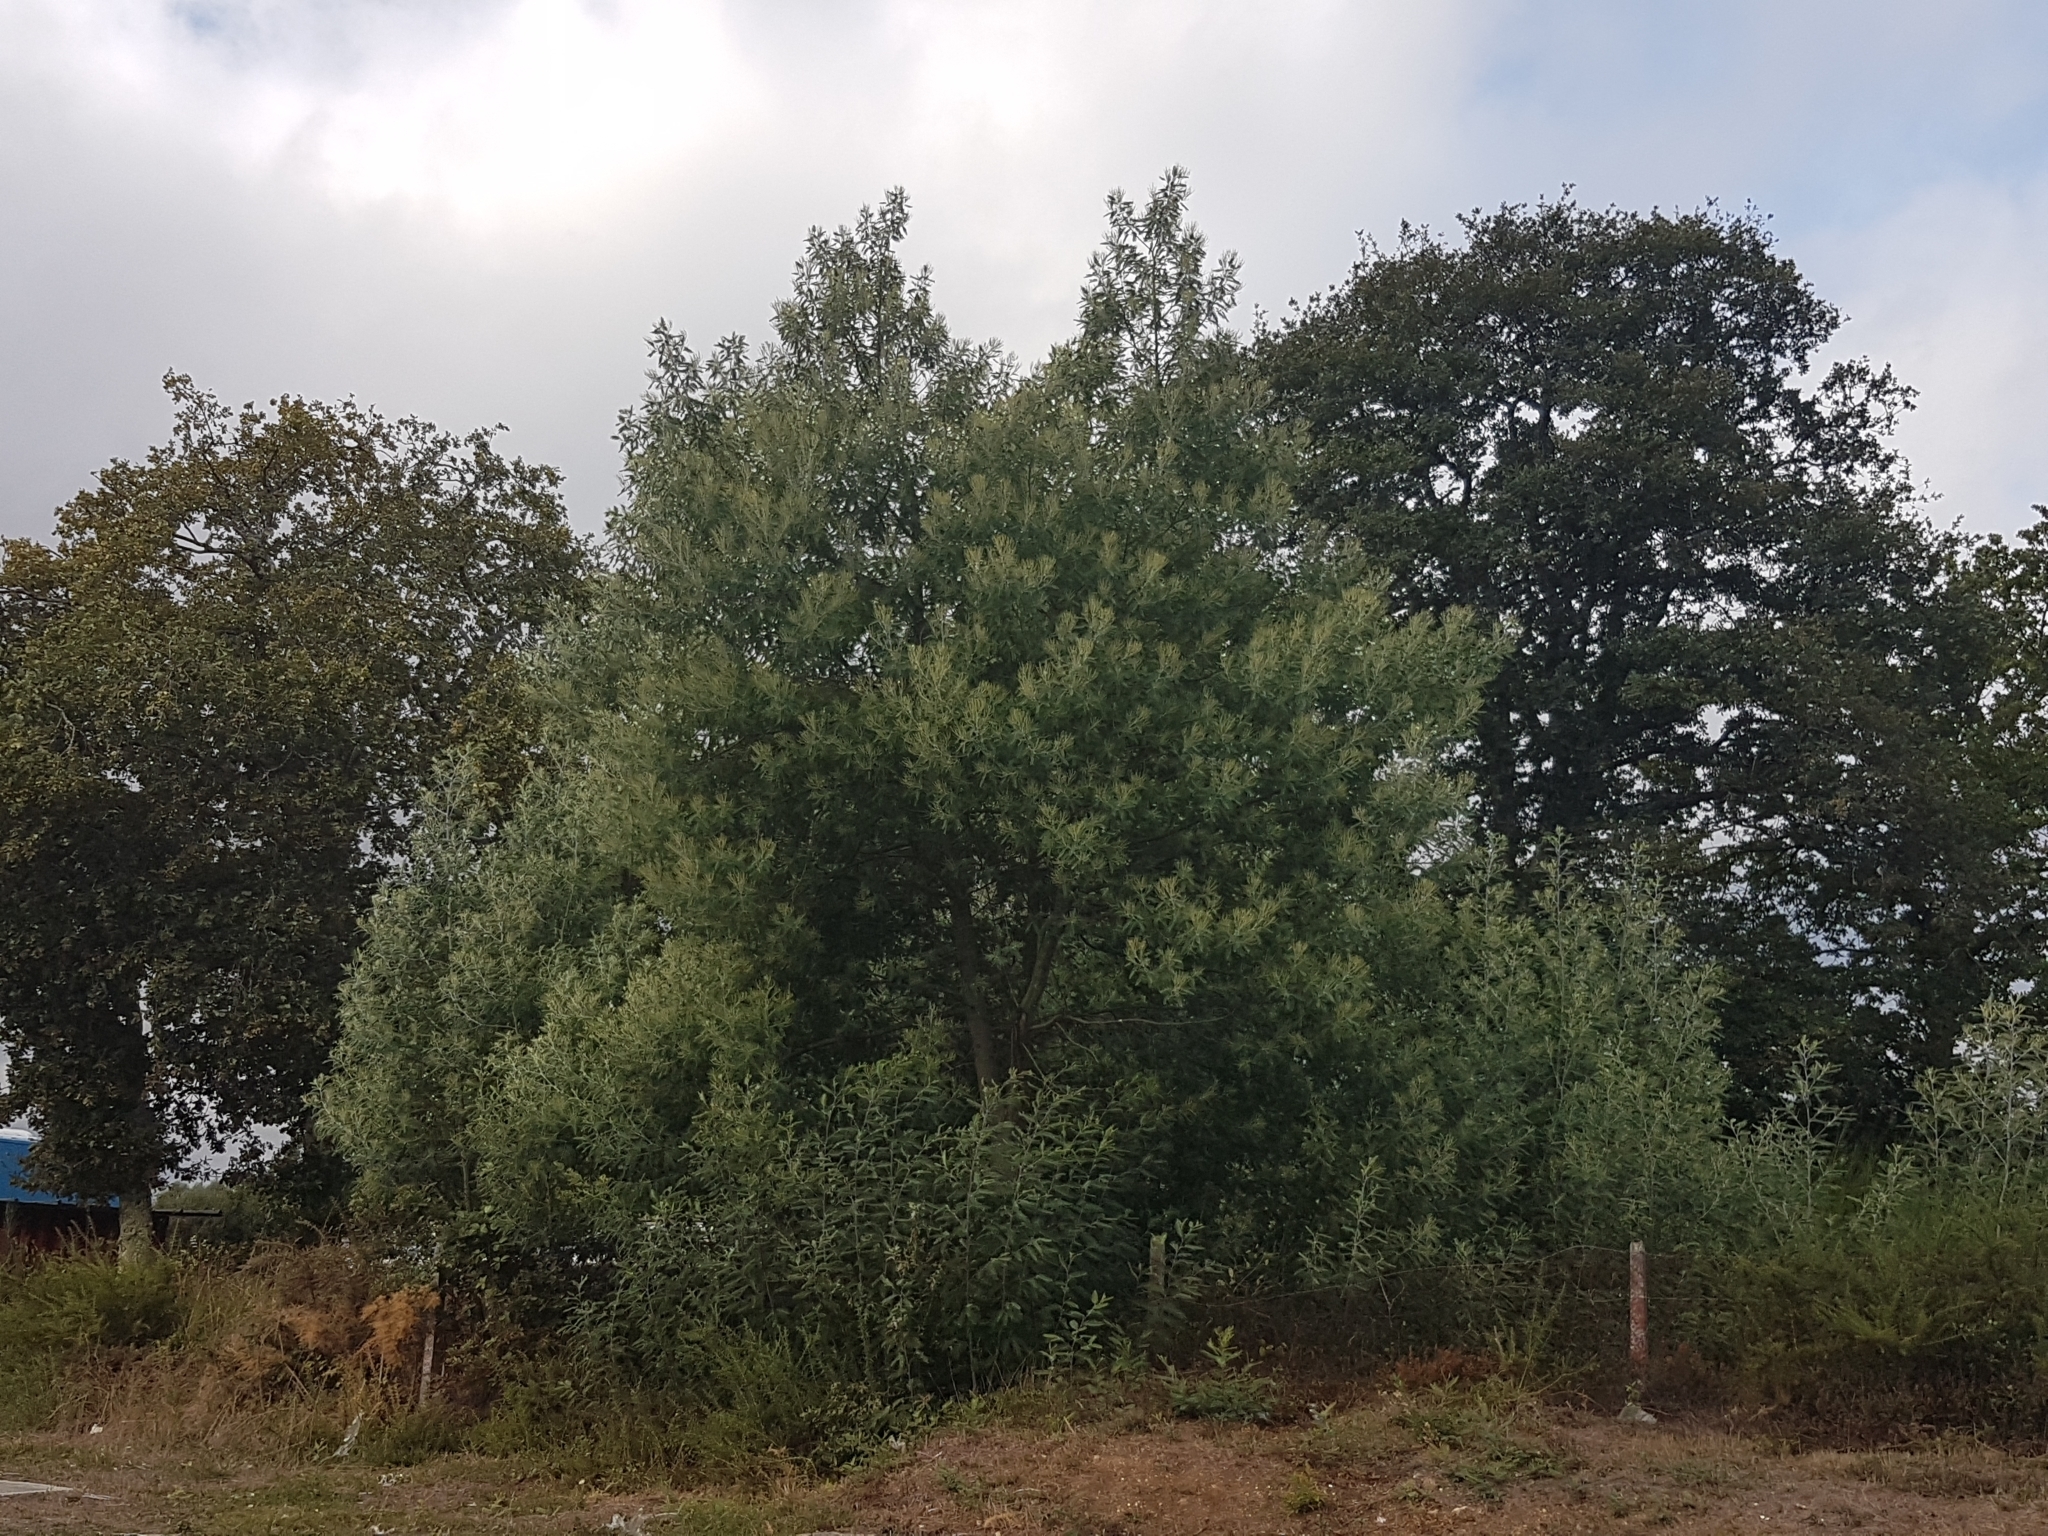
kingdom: Plantae
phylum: Tracheophyta
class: Magnoliopsida
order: Fabales
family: Fabaceae
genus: Acacia
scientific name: Acacia dealbata
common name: Silver wattle
